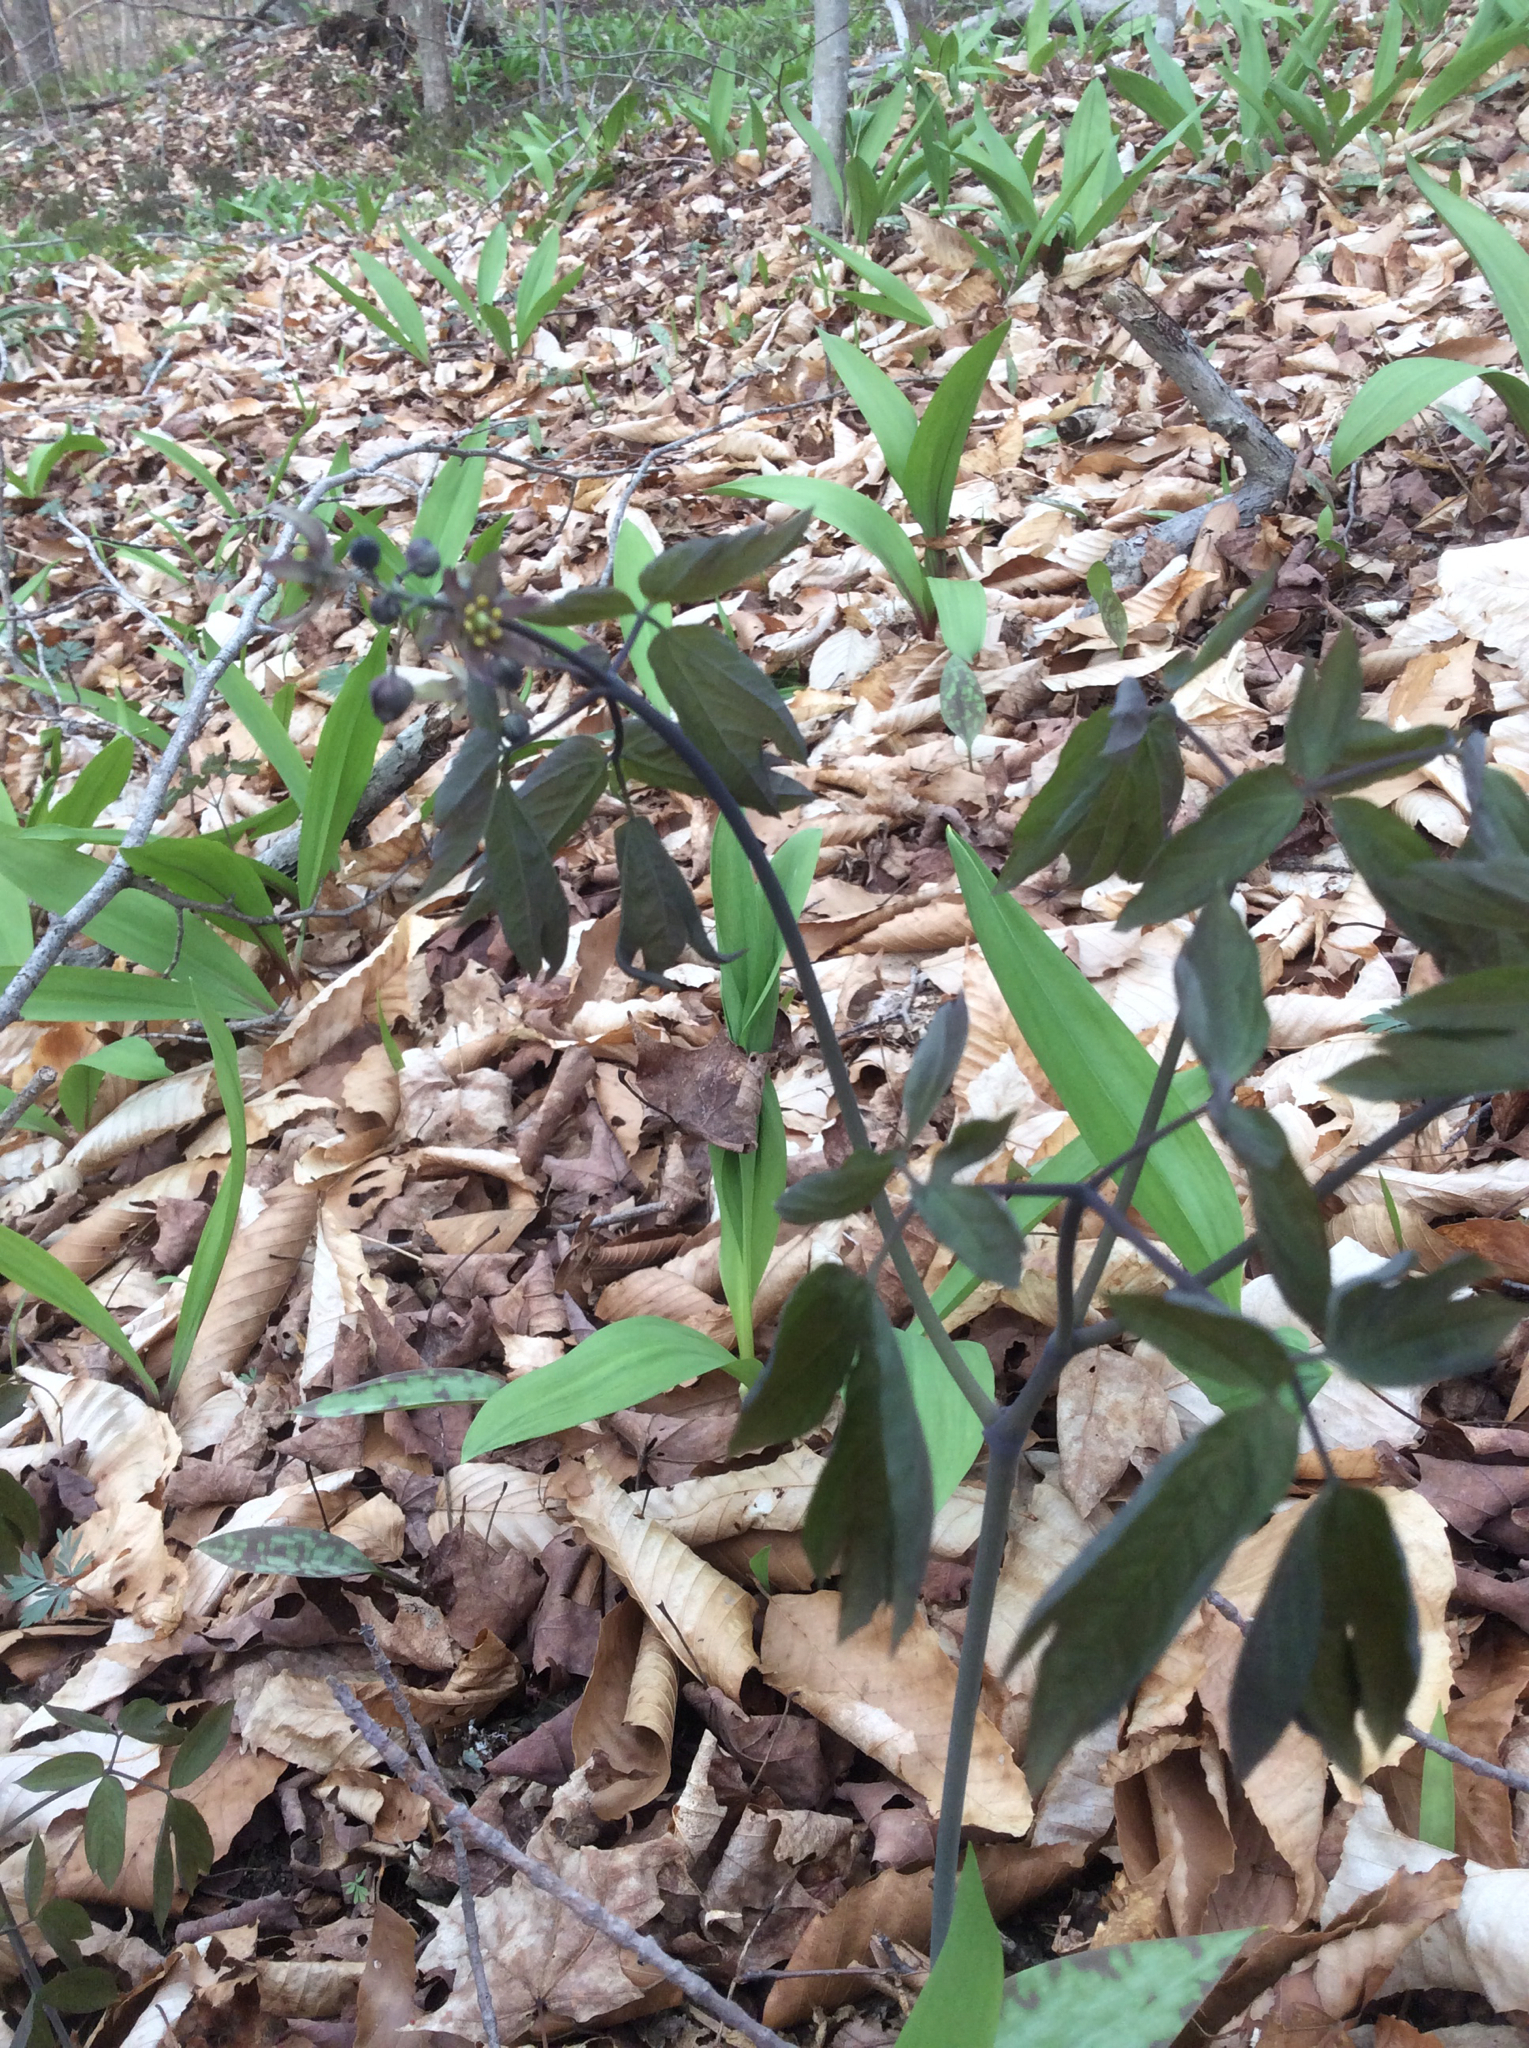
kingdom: Plantae
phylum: Tracheophyta
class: Magnoliopsida
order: Ranunculales
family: Berberidaceae
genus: Caulophyllum
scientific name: Caulophyllum giganteum
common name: Blue cohosh
